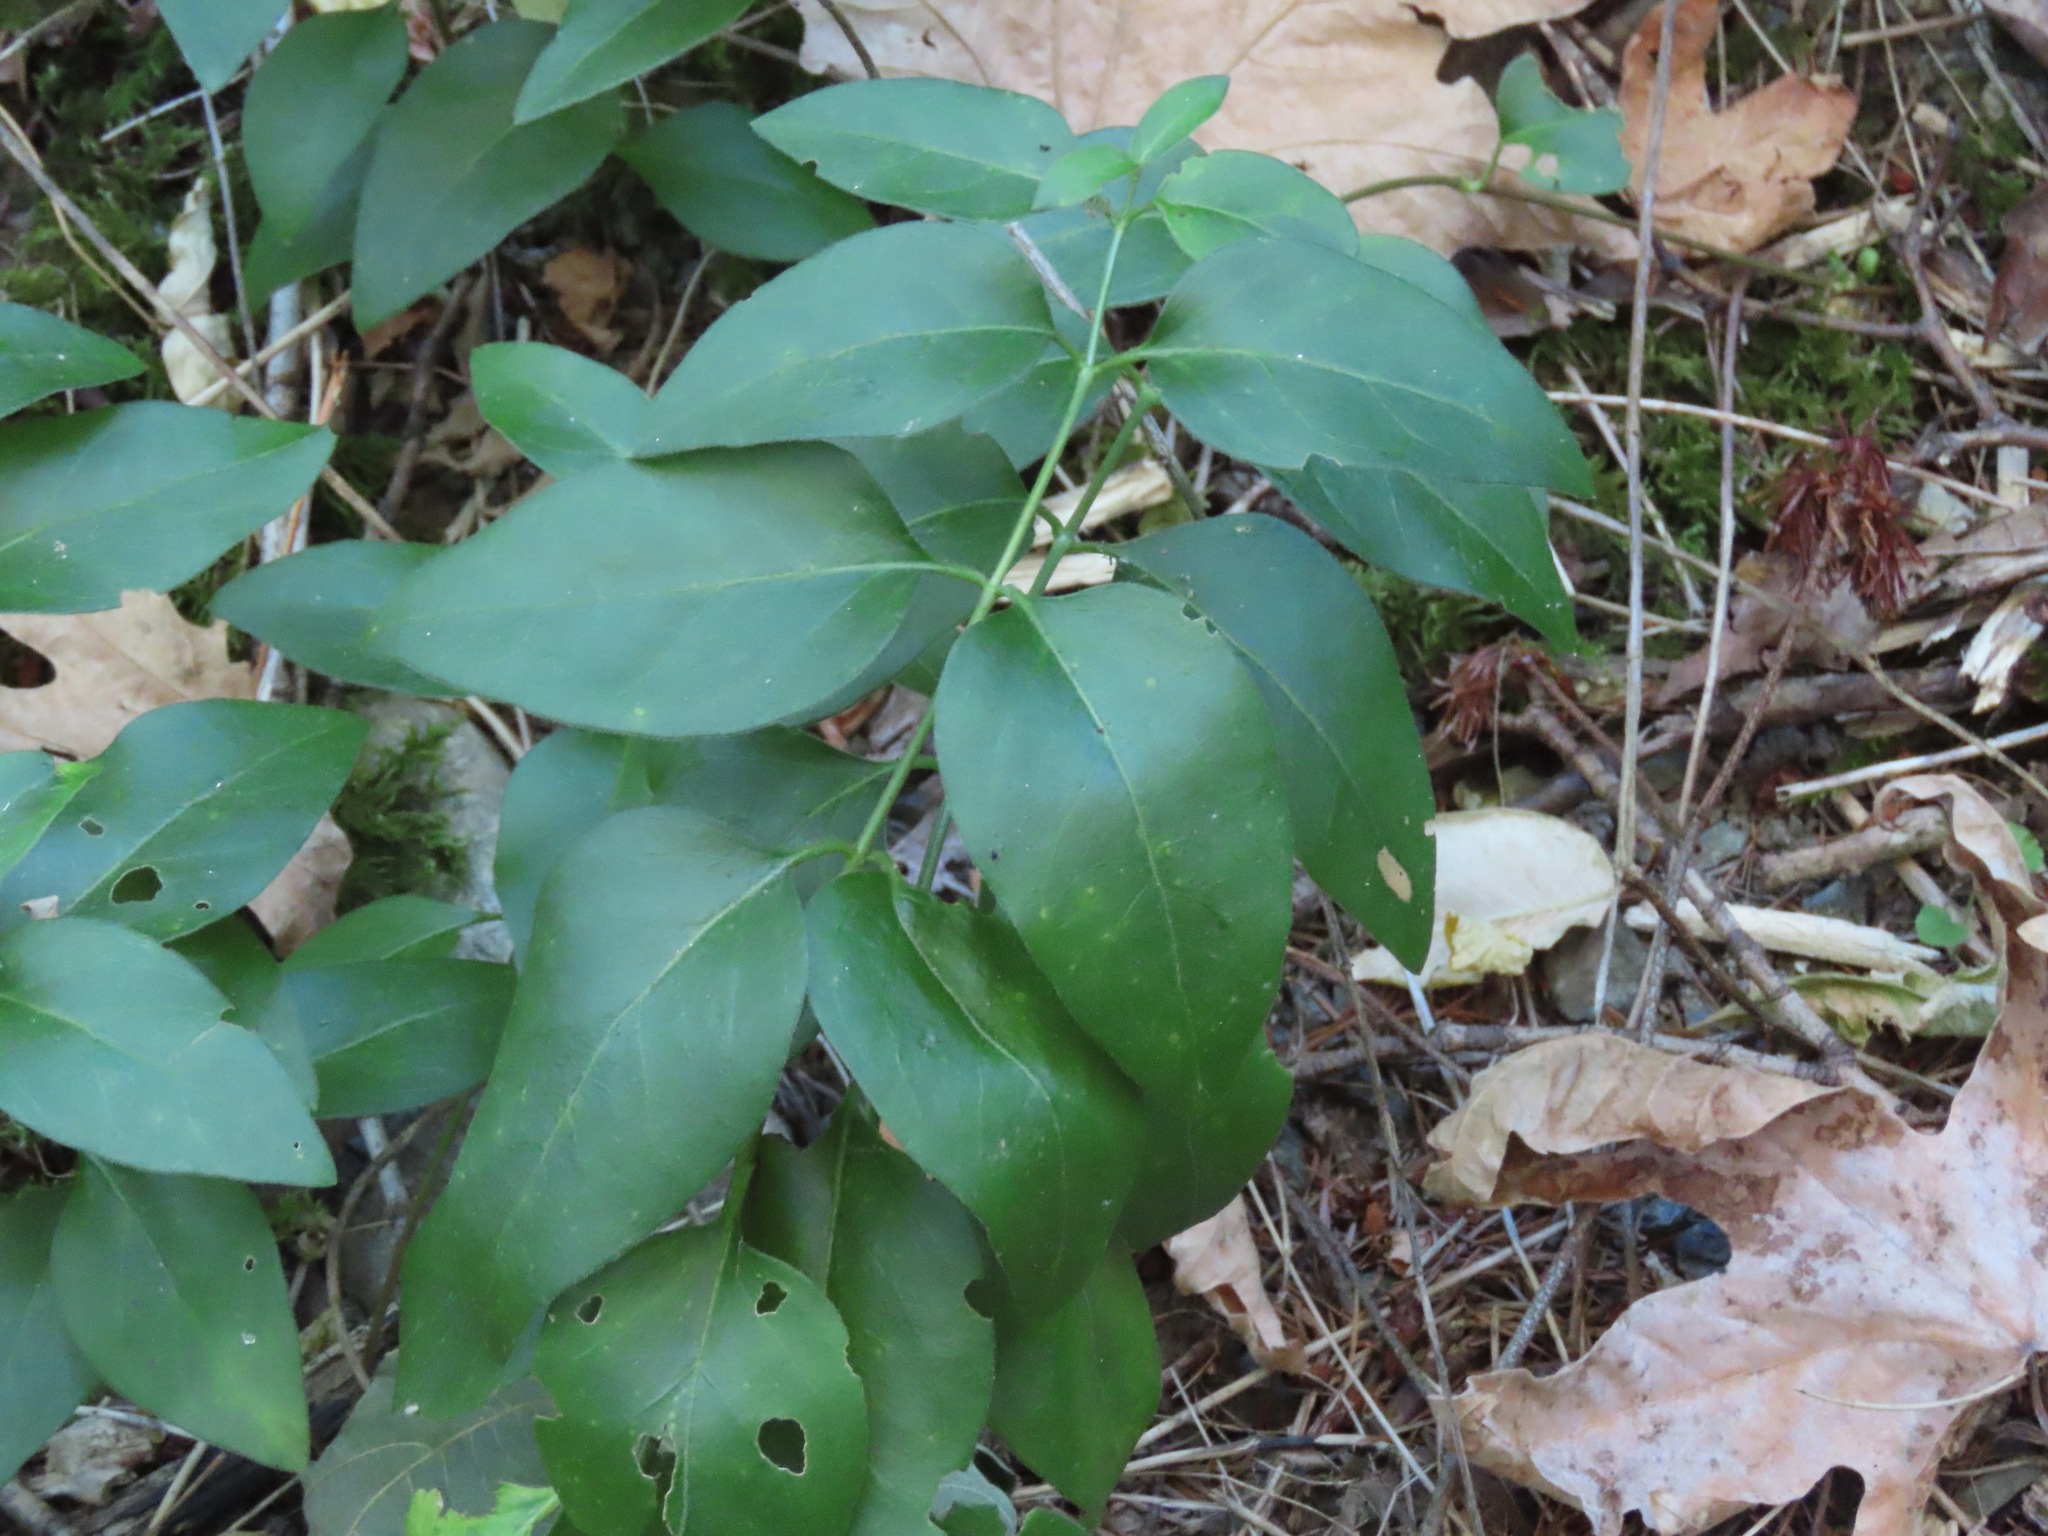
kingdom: Plantae
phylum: Tracheophyta
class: Magnoliopsida
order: Gentianales
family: Apocynaceae
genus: Vinca
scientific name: Vinca major
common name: Greater periwinkle
